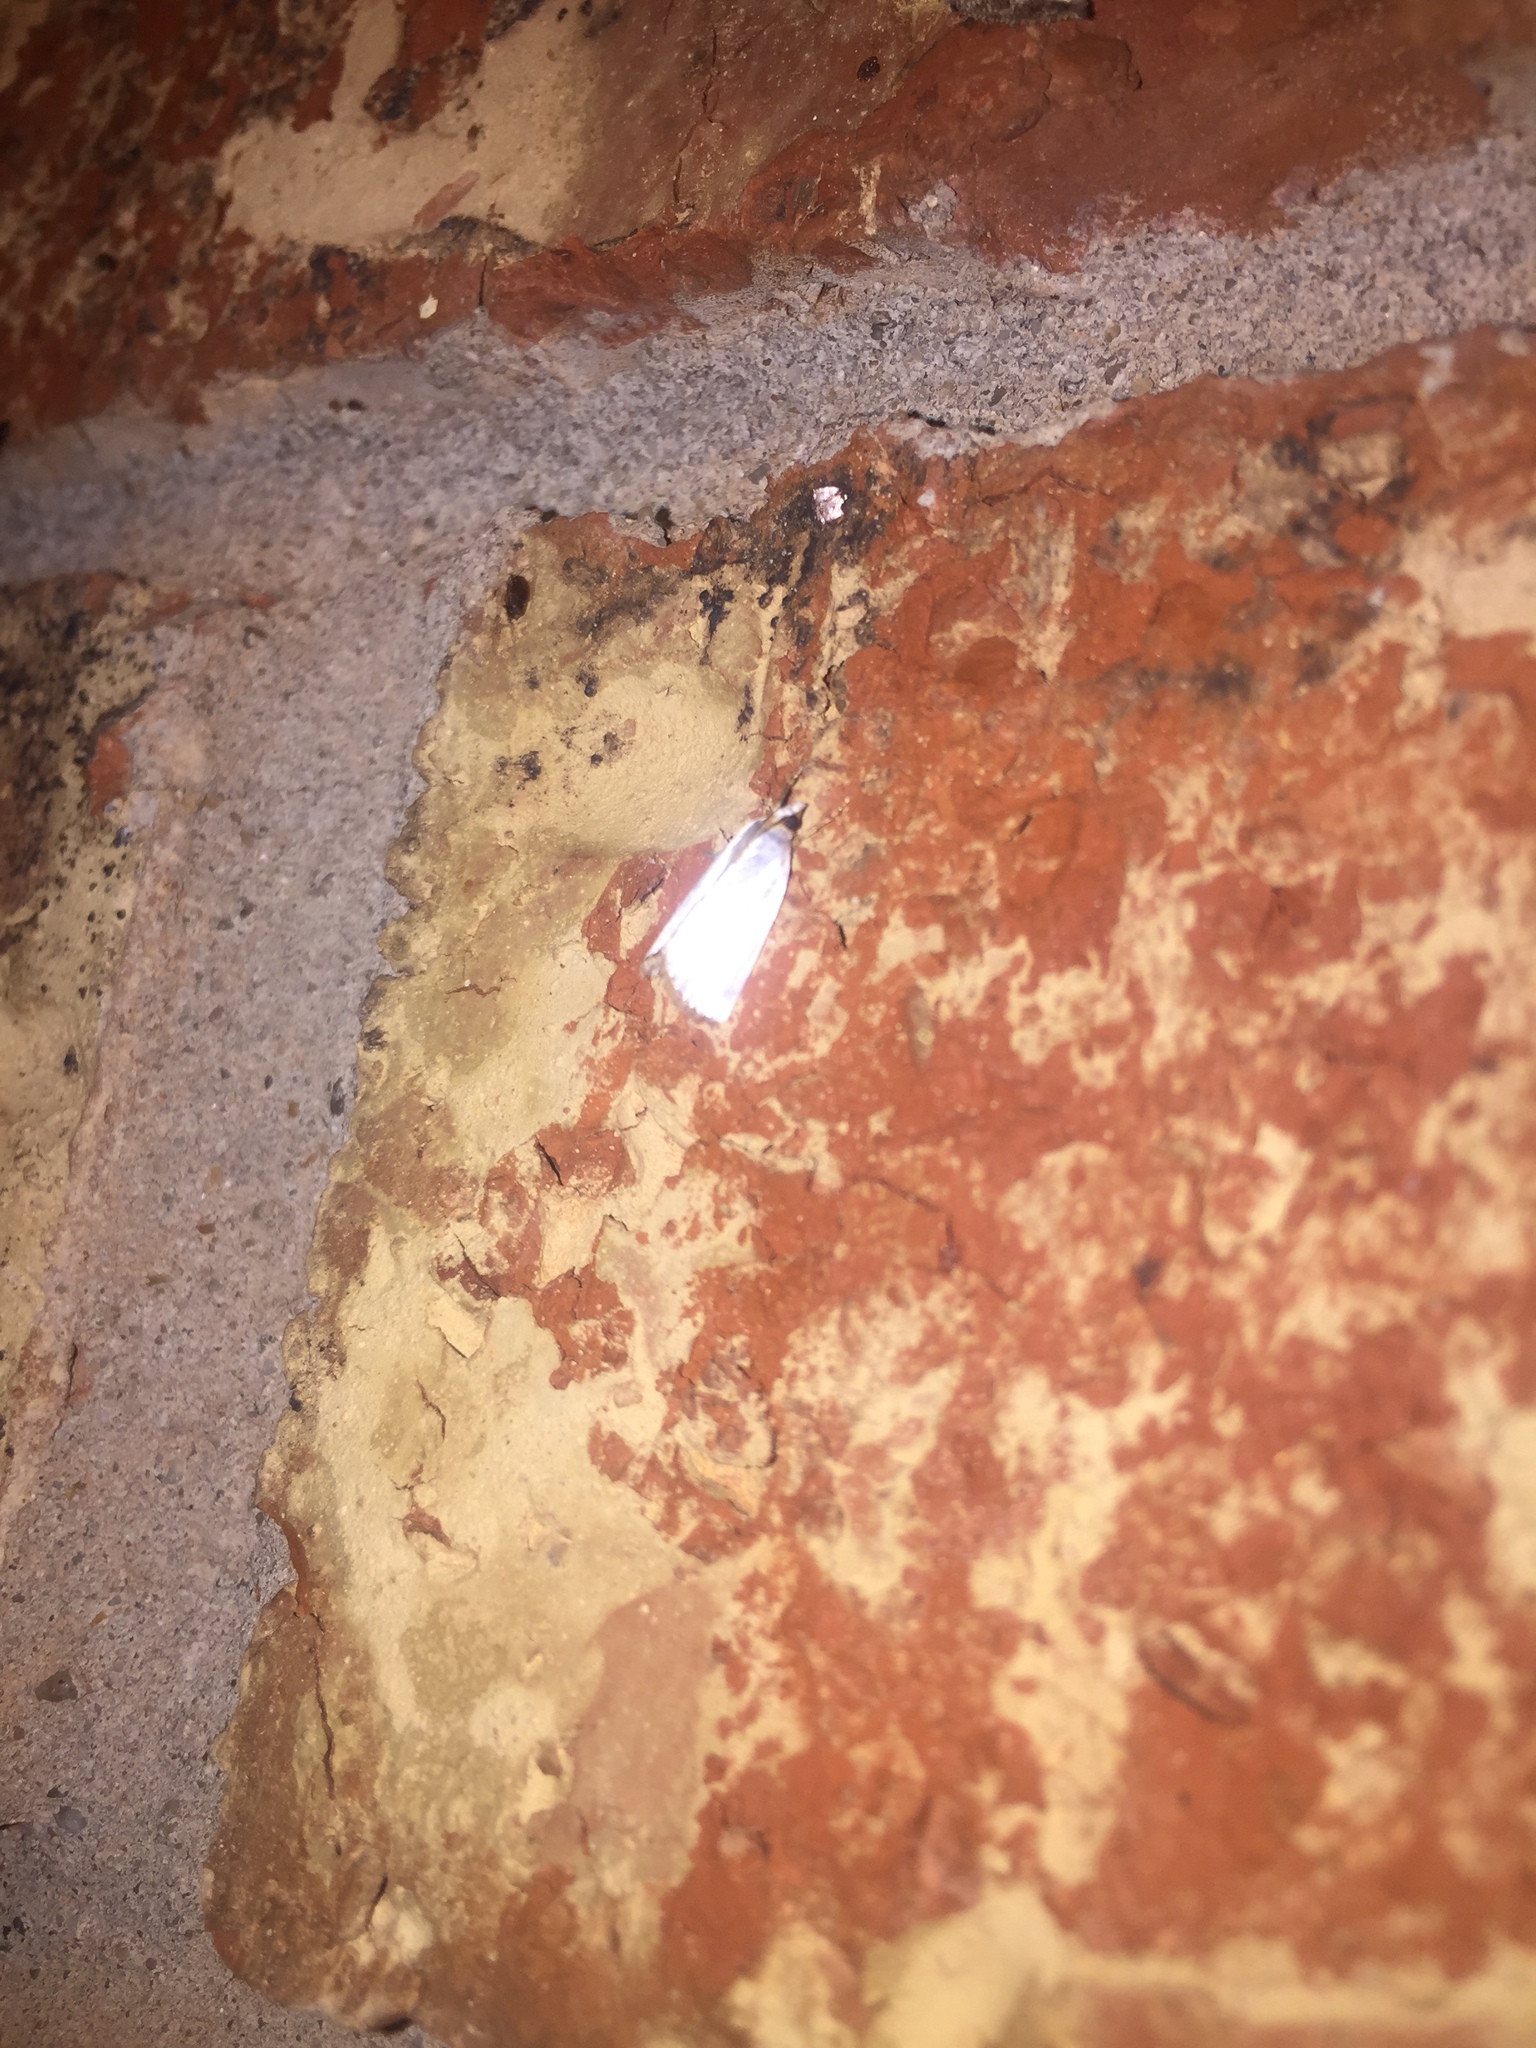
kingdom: Animalia
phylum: Arthropoda
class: Insecta
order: Lepidoptera
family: Crambidae
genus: Argyria
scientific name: Argyria nivalis
